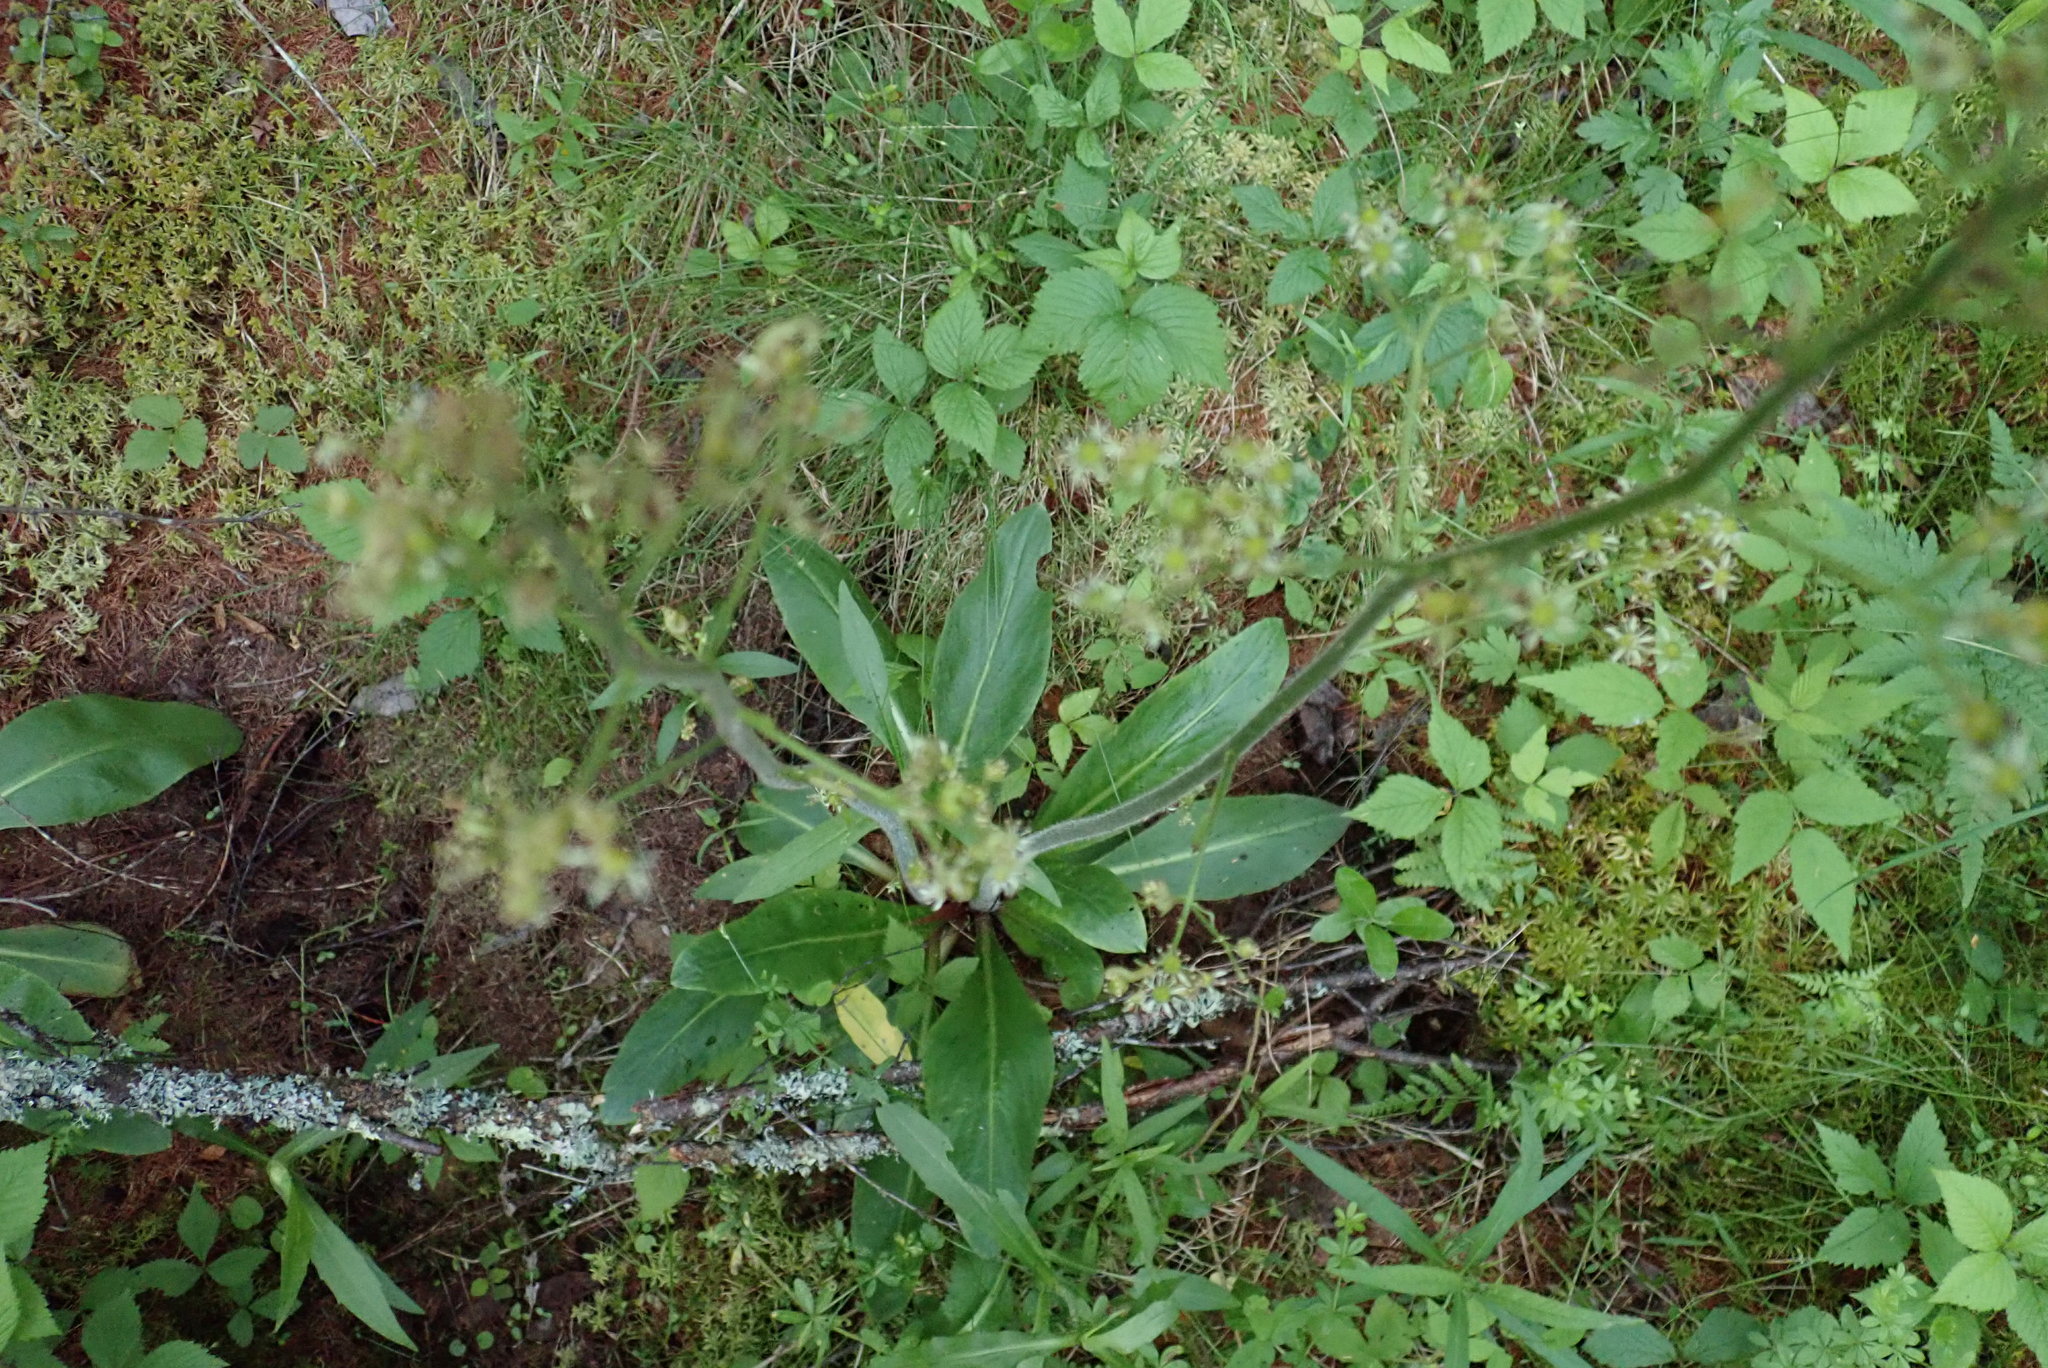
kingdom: Plantae
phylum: Tracheophyta
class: Magnoliopsida
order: Saxifragales
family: Saxifragaceae
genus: Micranthes
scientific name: Micranthes pensylvanica
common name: Marsh saxifrage
